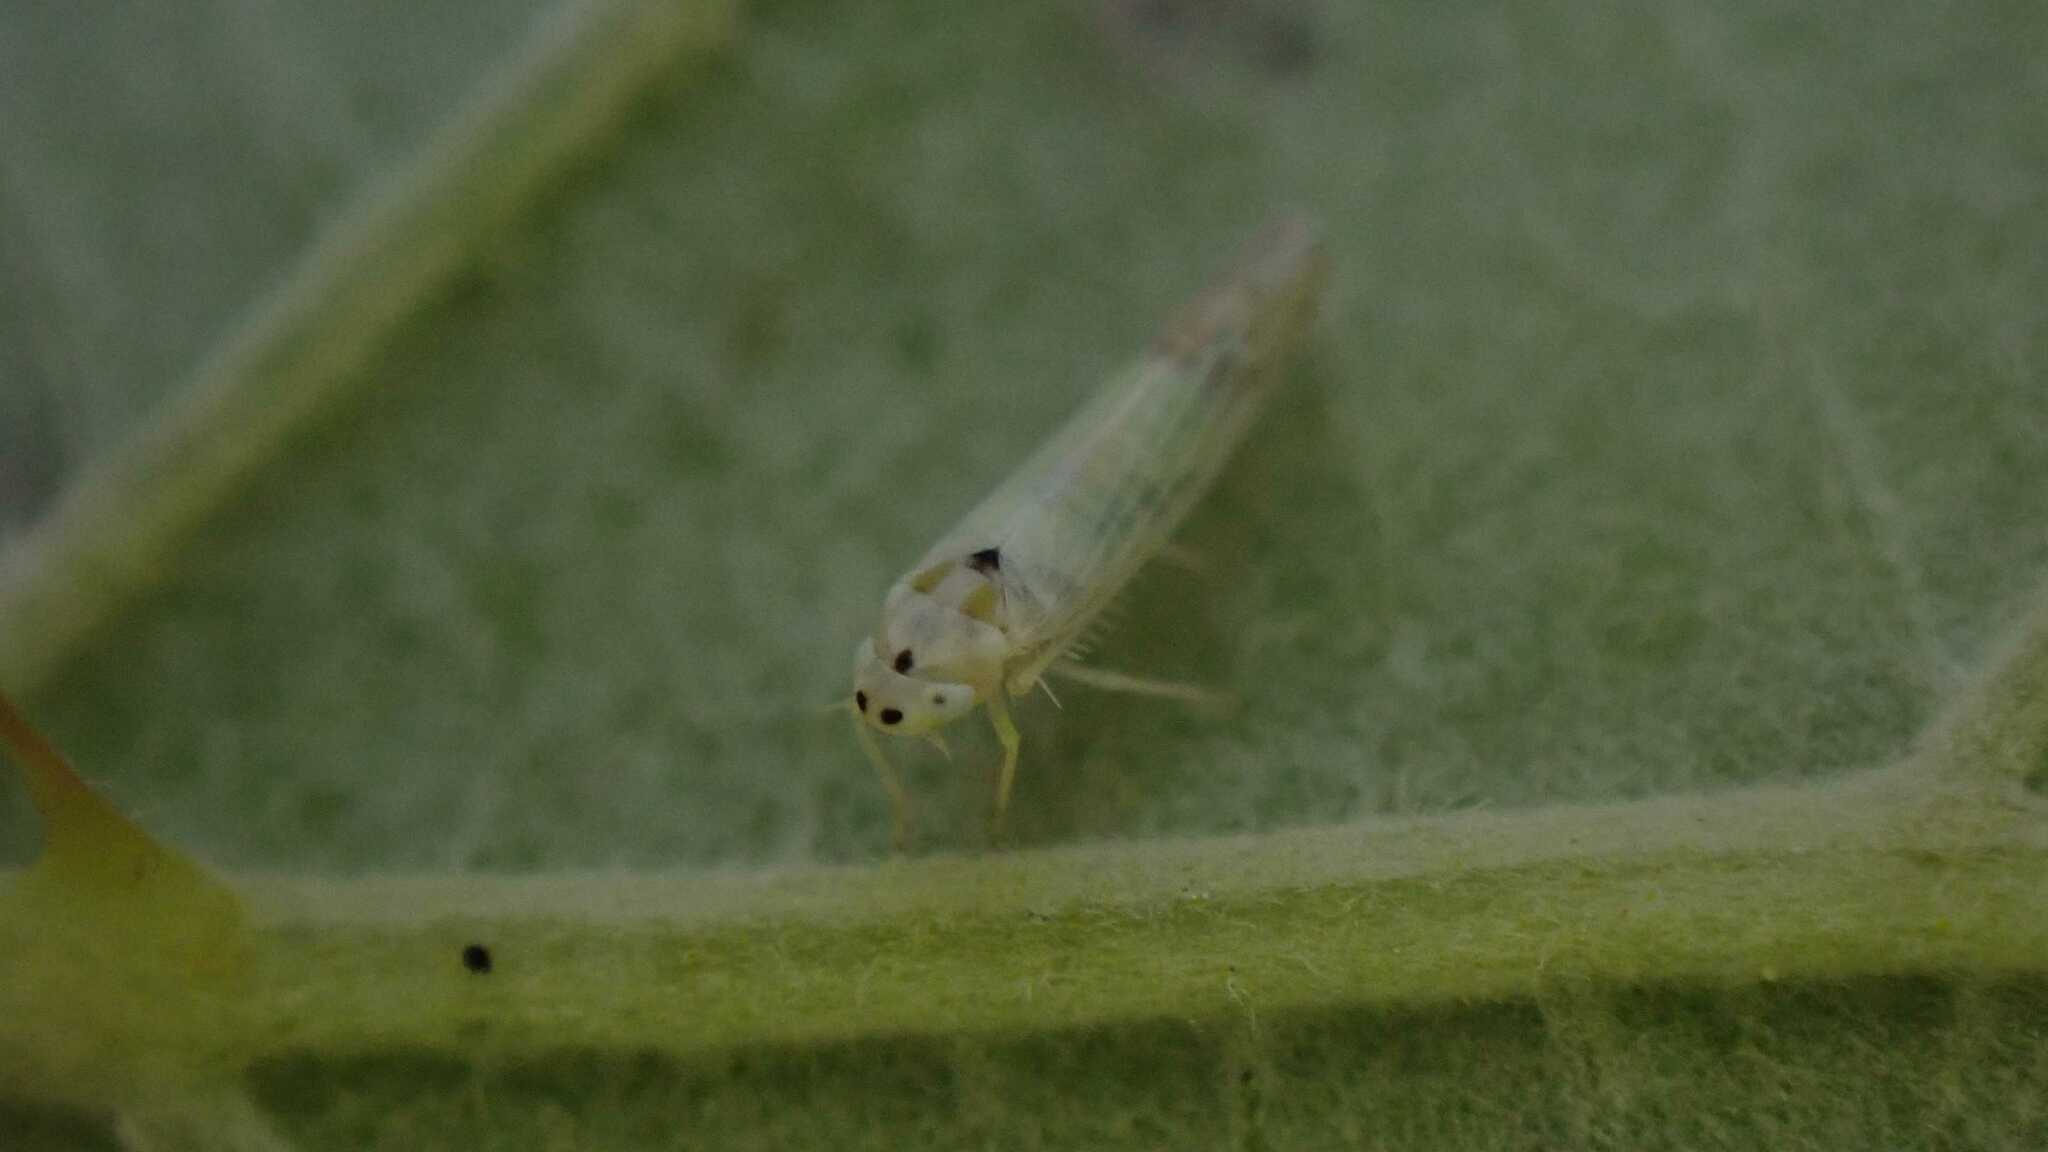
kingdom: Animalia
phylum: Arthropoda
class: Insecta
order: Hemiptera
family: Cicadellidae
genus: Ribautiana
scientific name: Ribautiana debilis
